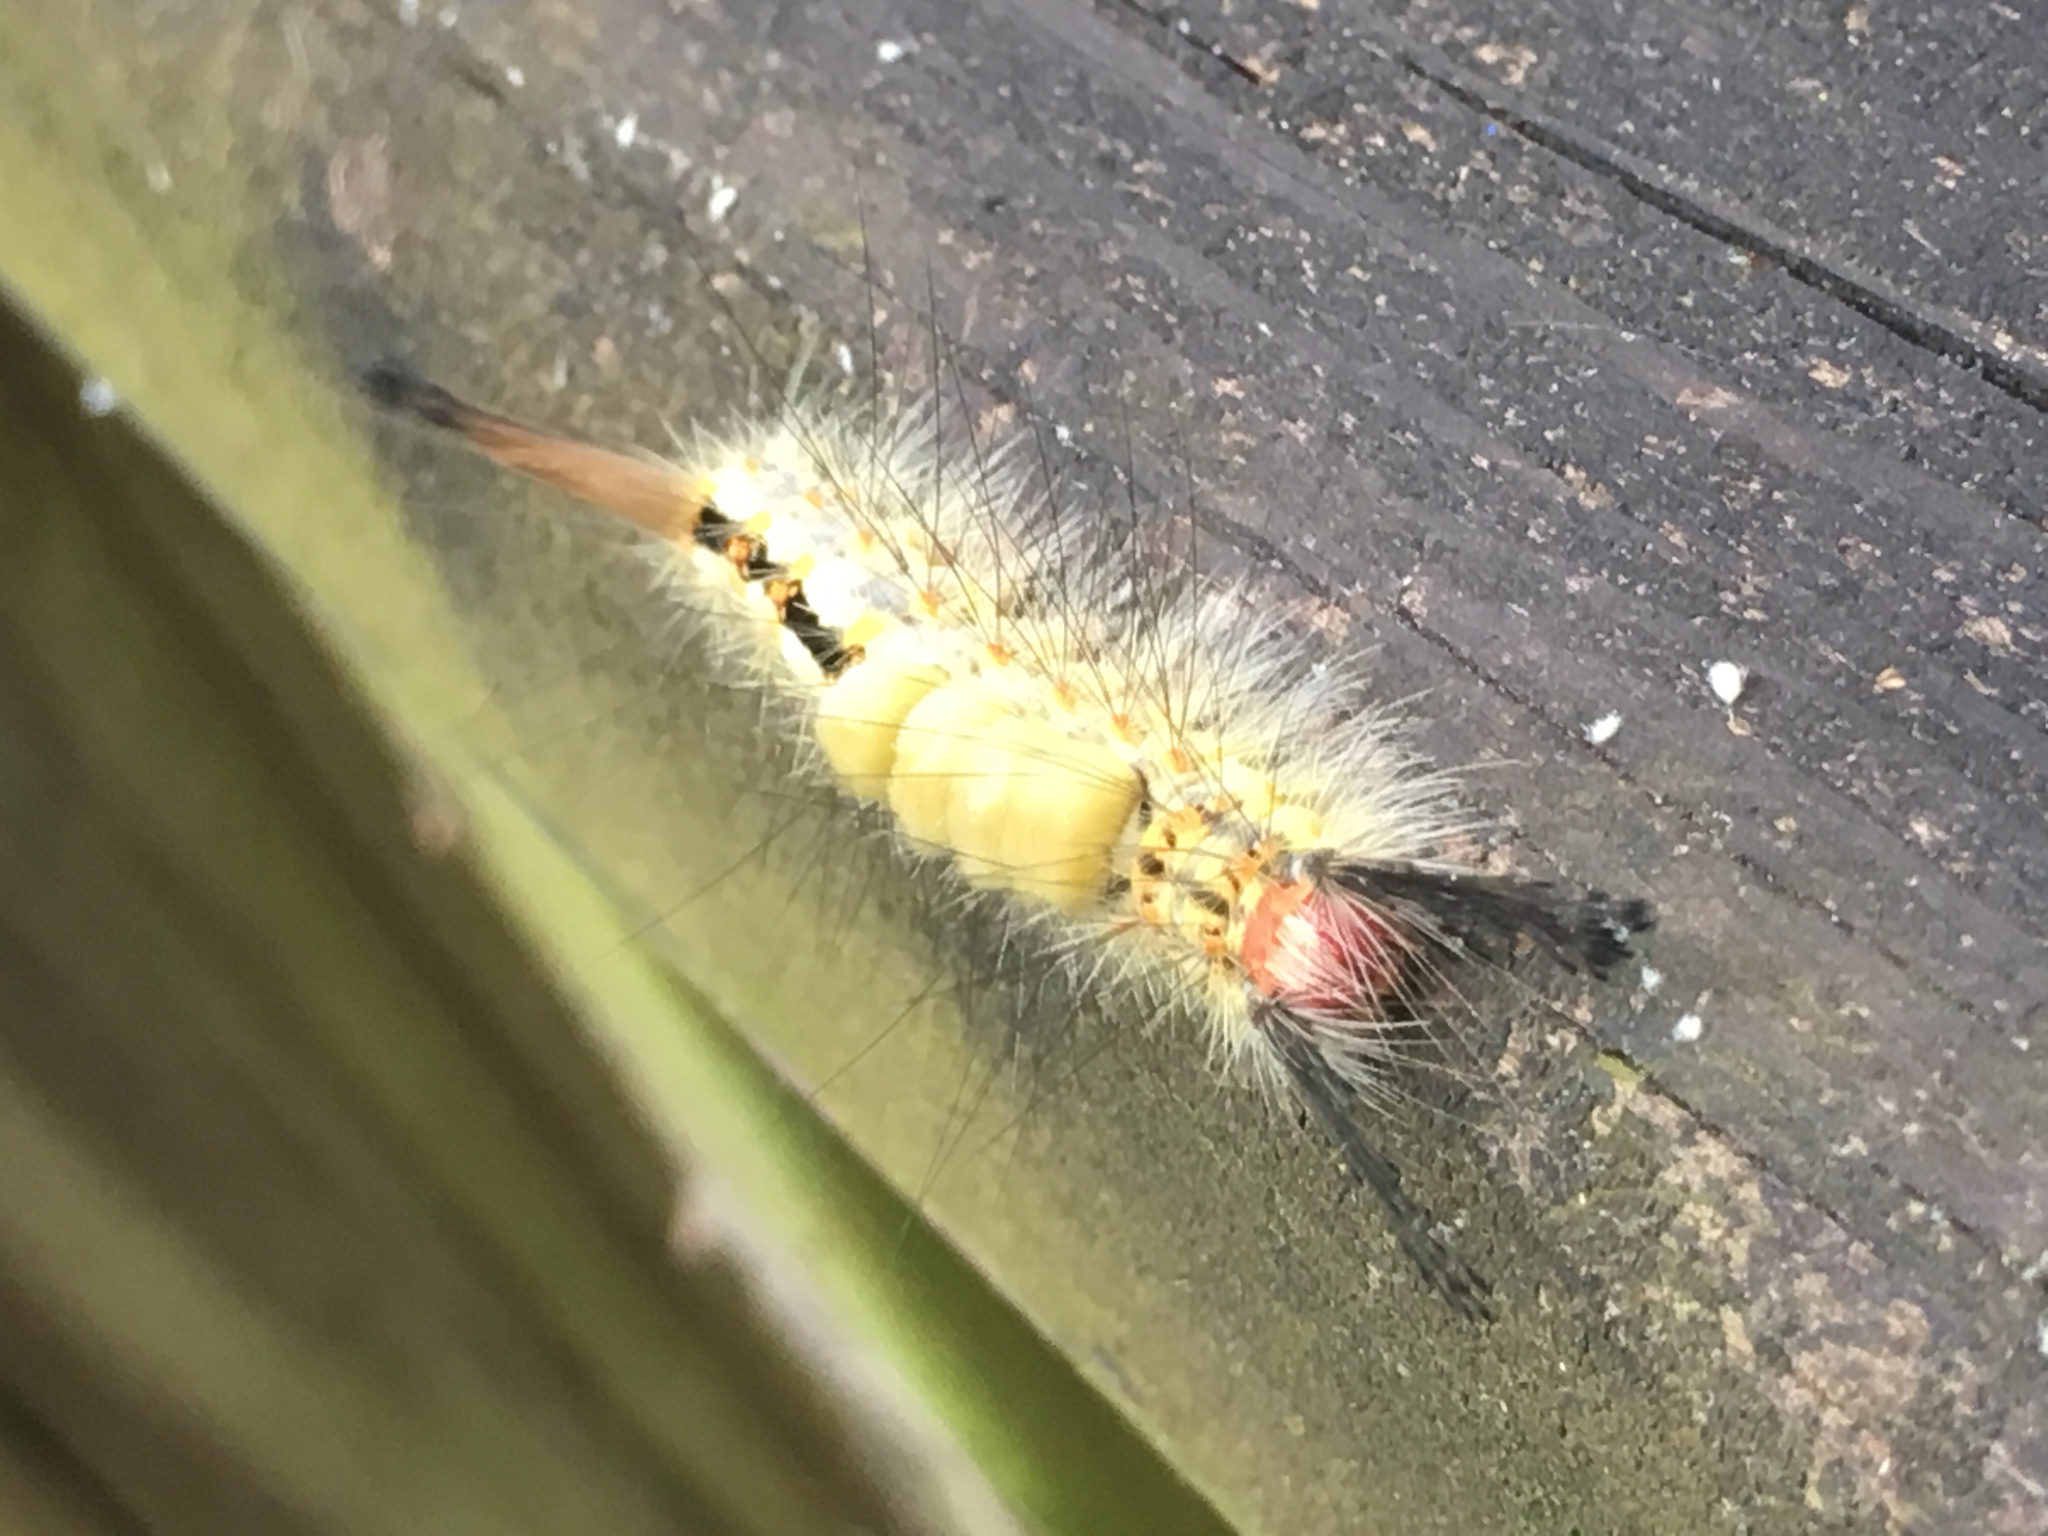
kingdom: Animalia
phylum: Arthropoda
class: Insecta
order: Lepidoptera
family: Erebidae
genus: Orgyia
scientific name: Orgyia detrita
